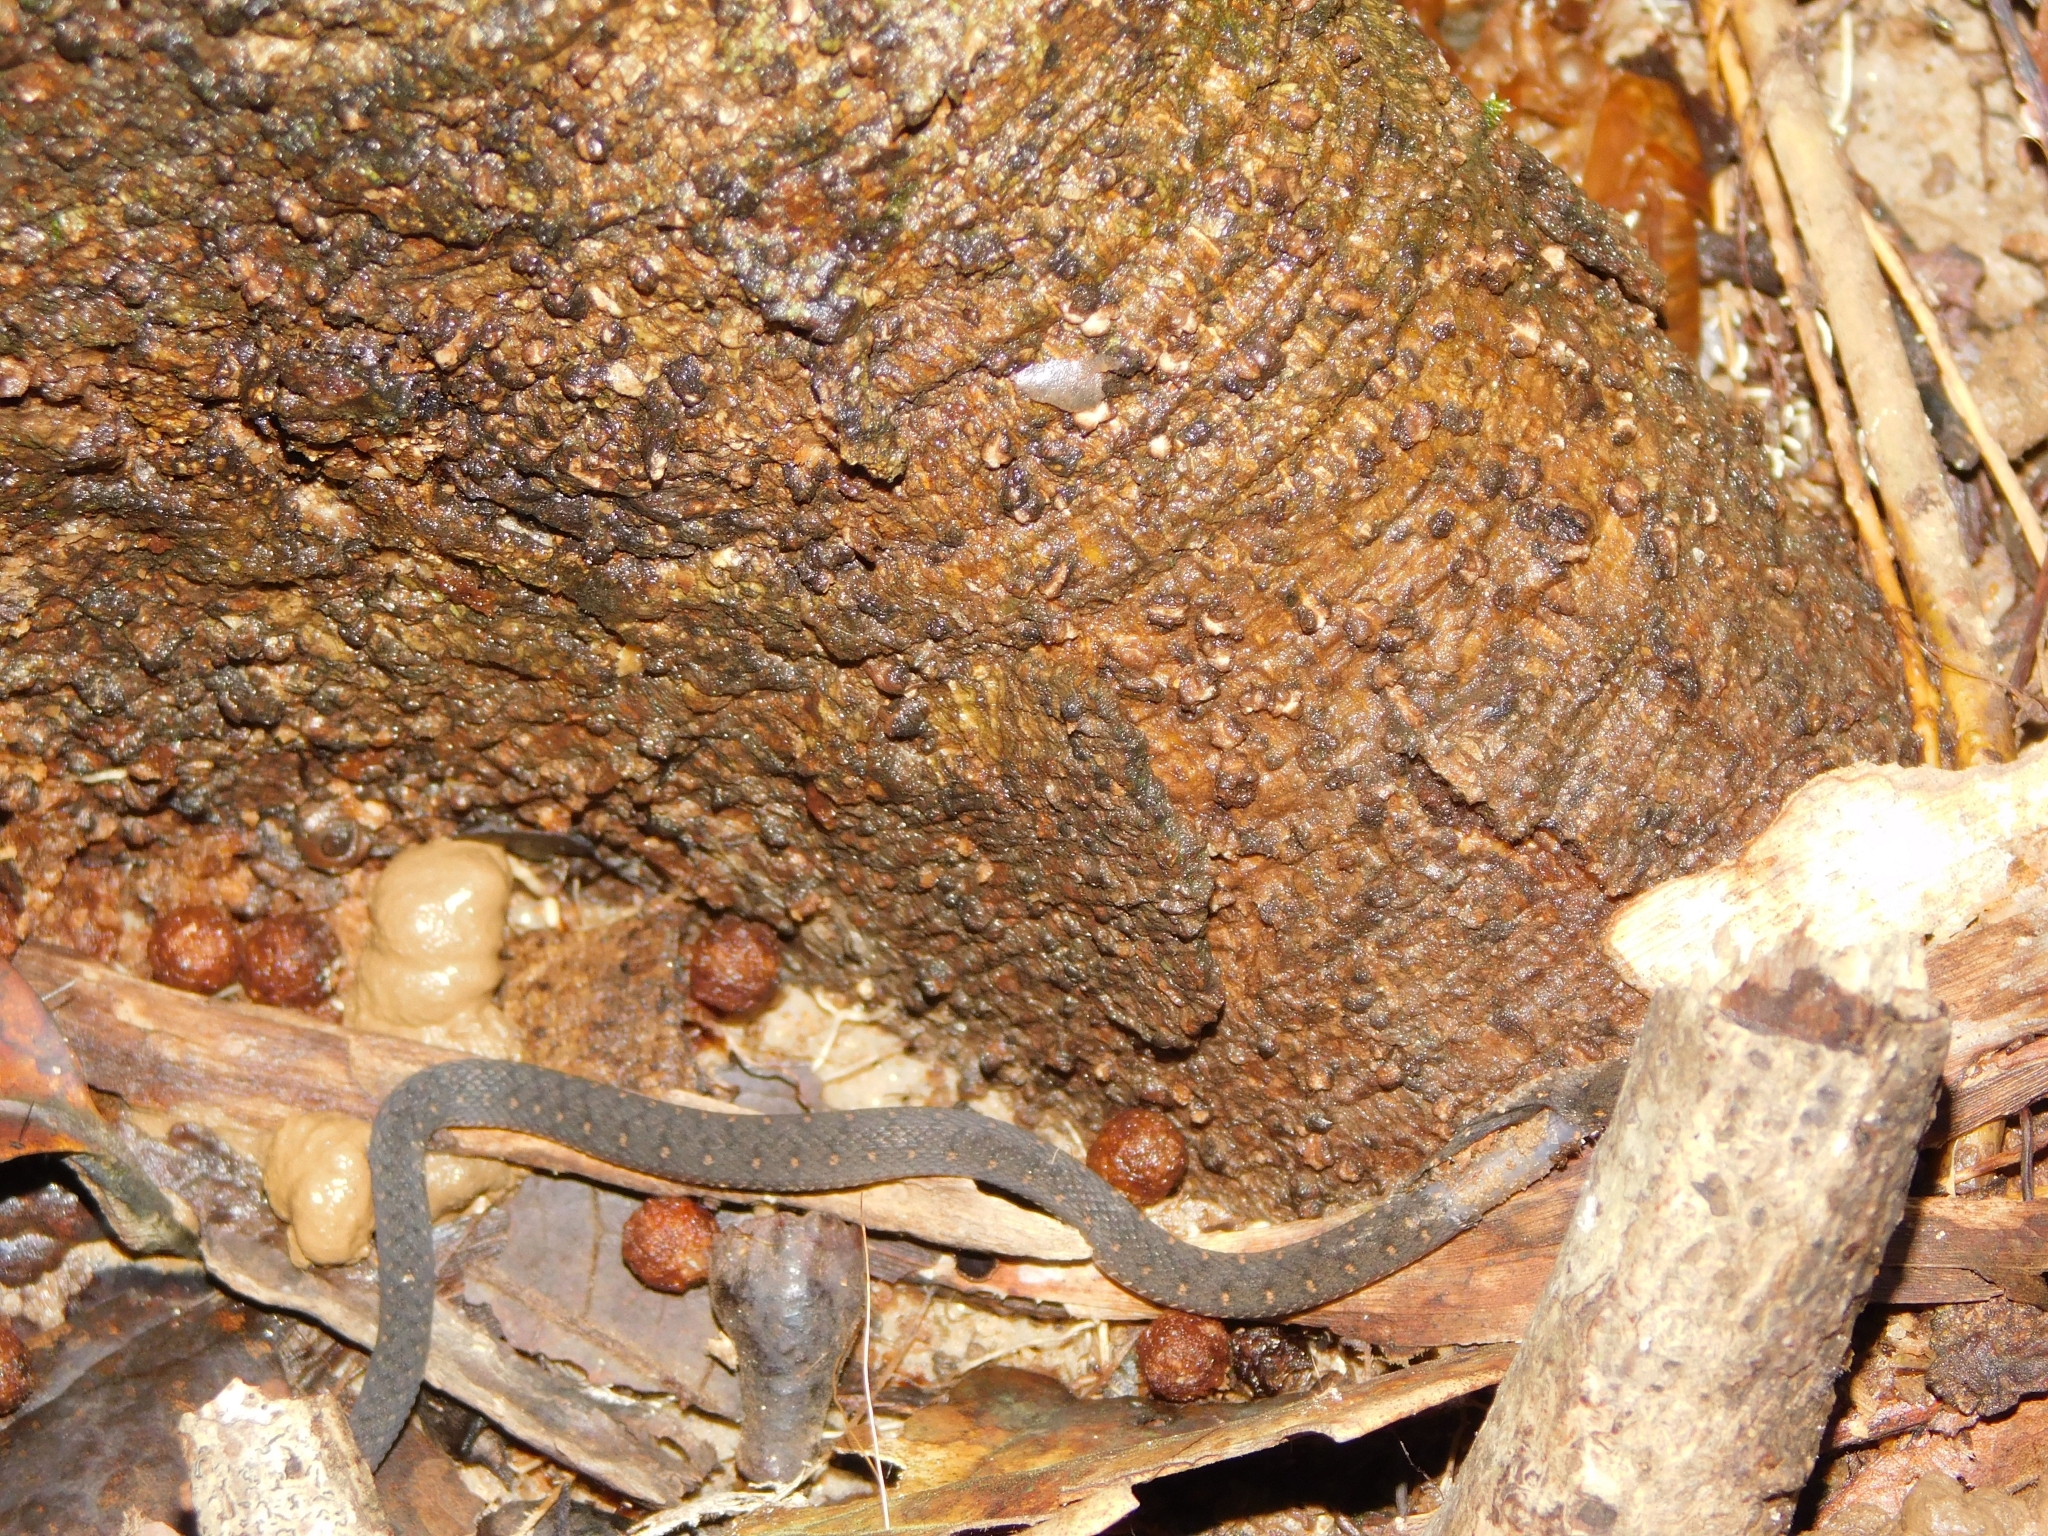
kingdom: Animalia
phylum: Chordata
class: Squamata
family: Colubridae
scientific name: Colubridae
